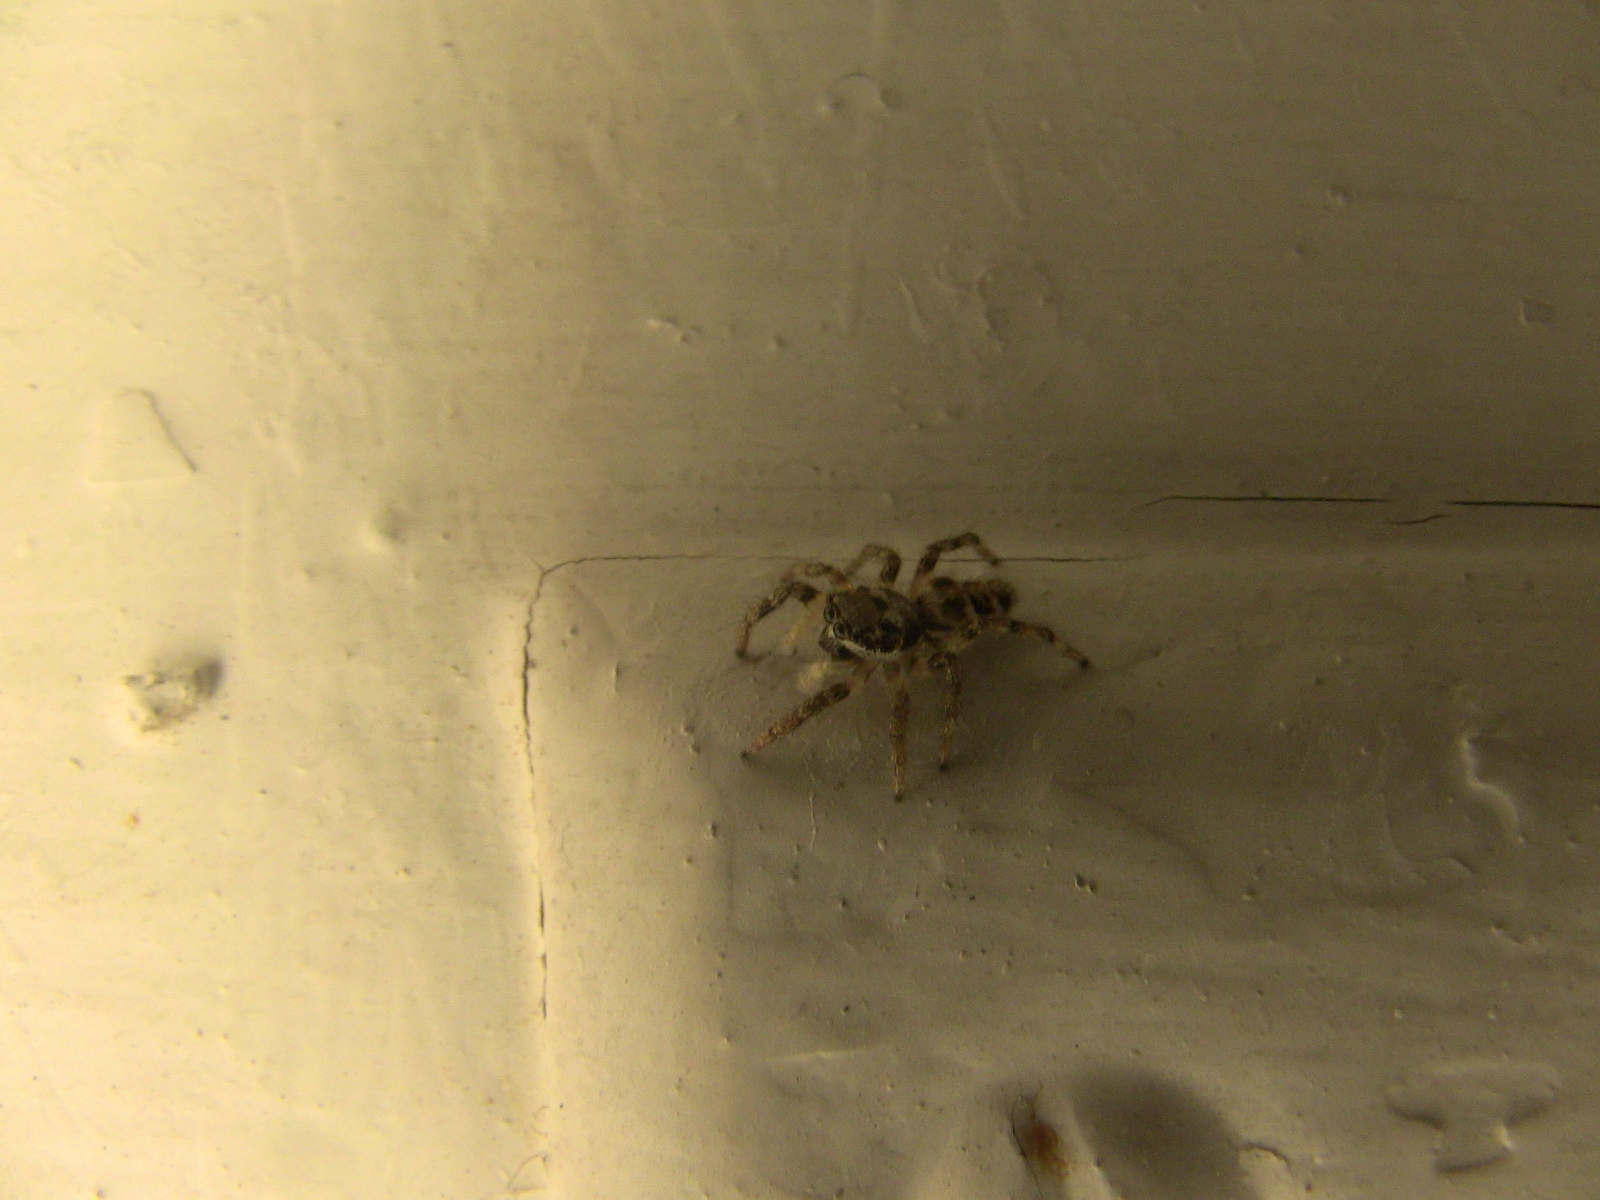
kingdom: Animalia
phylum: Arthropoda
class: Arachnida
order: Araneae
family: Salticidae
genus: Salticus
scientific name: Salticus scenicus
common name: Zebra jumper
